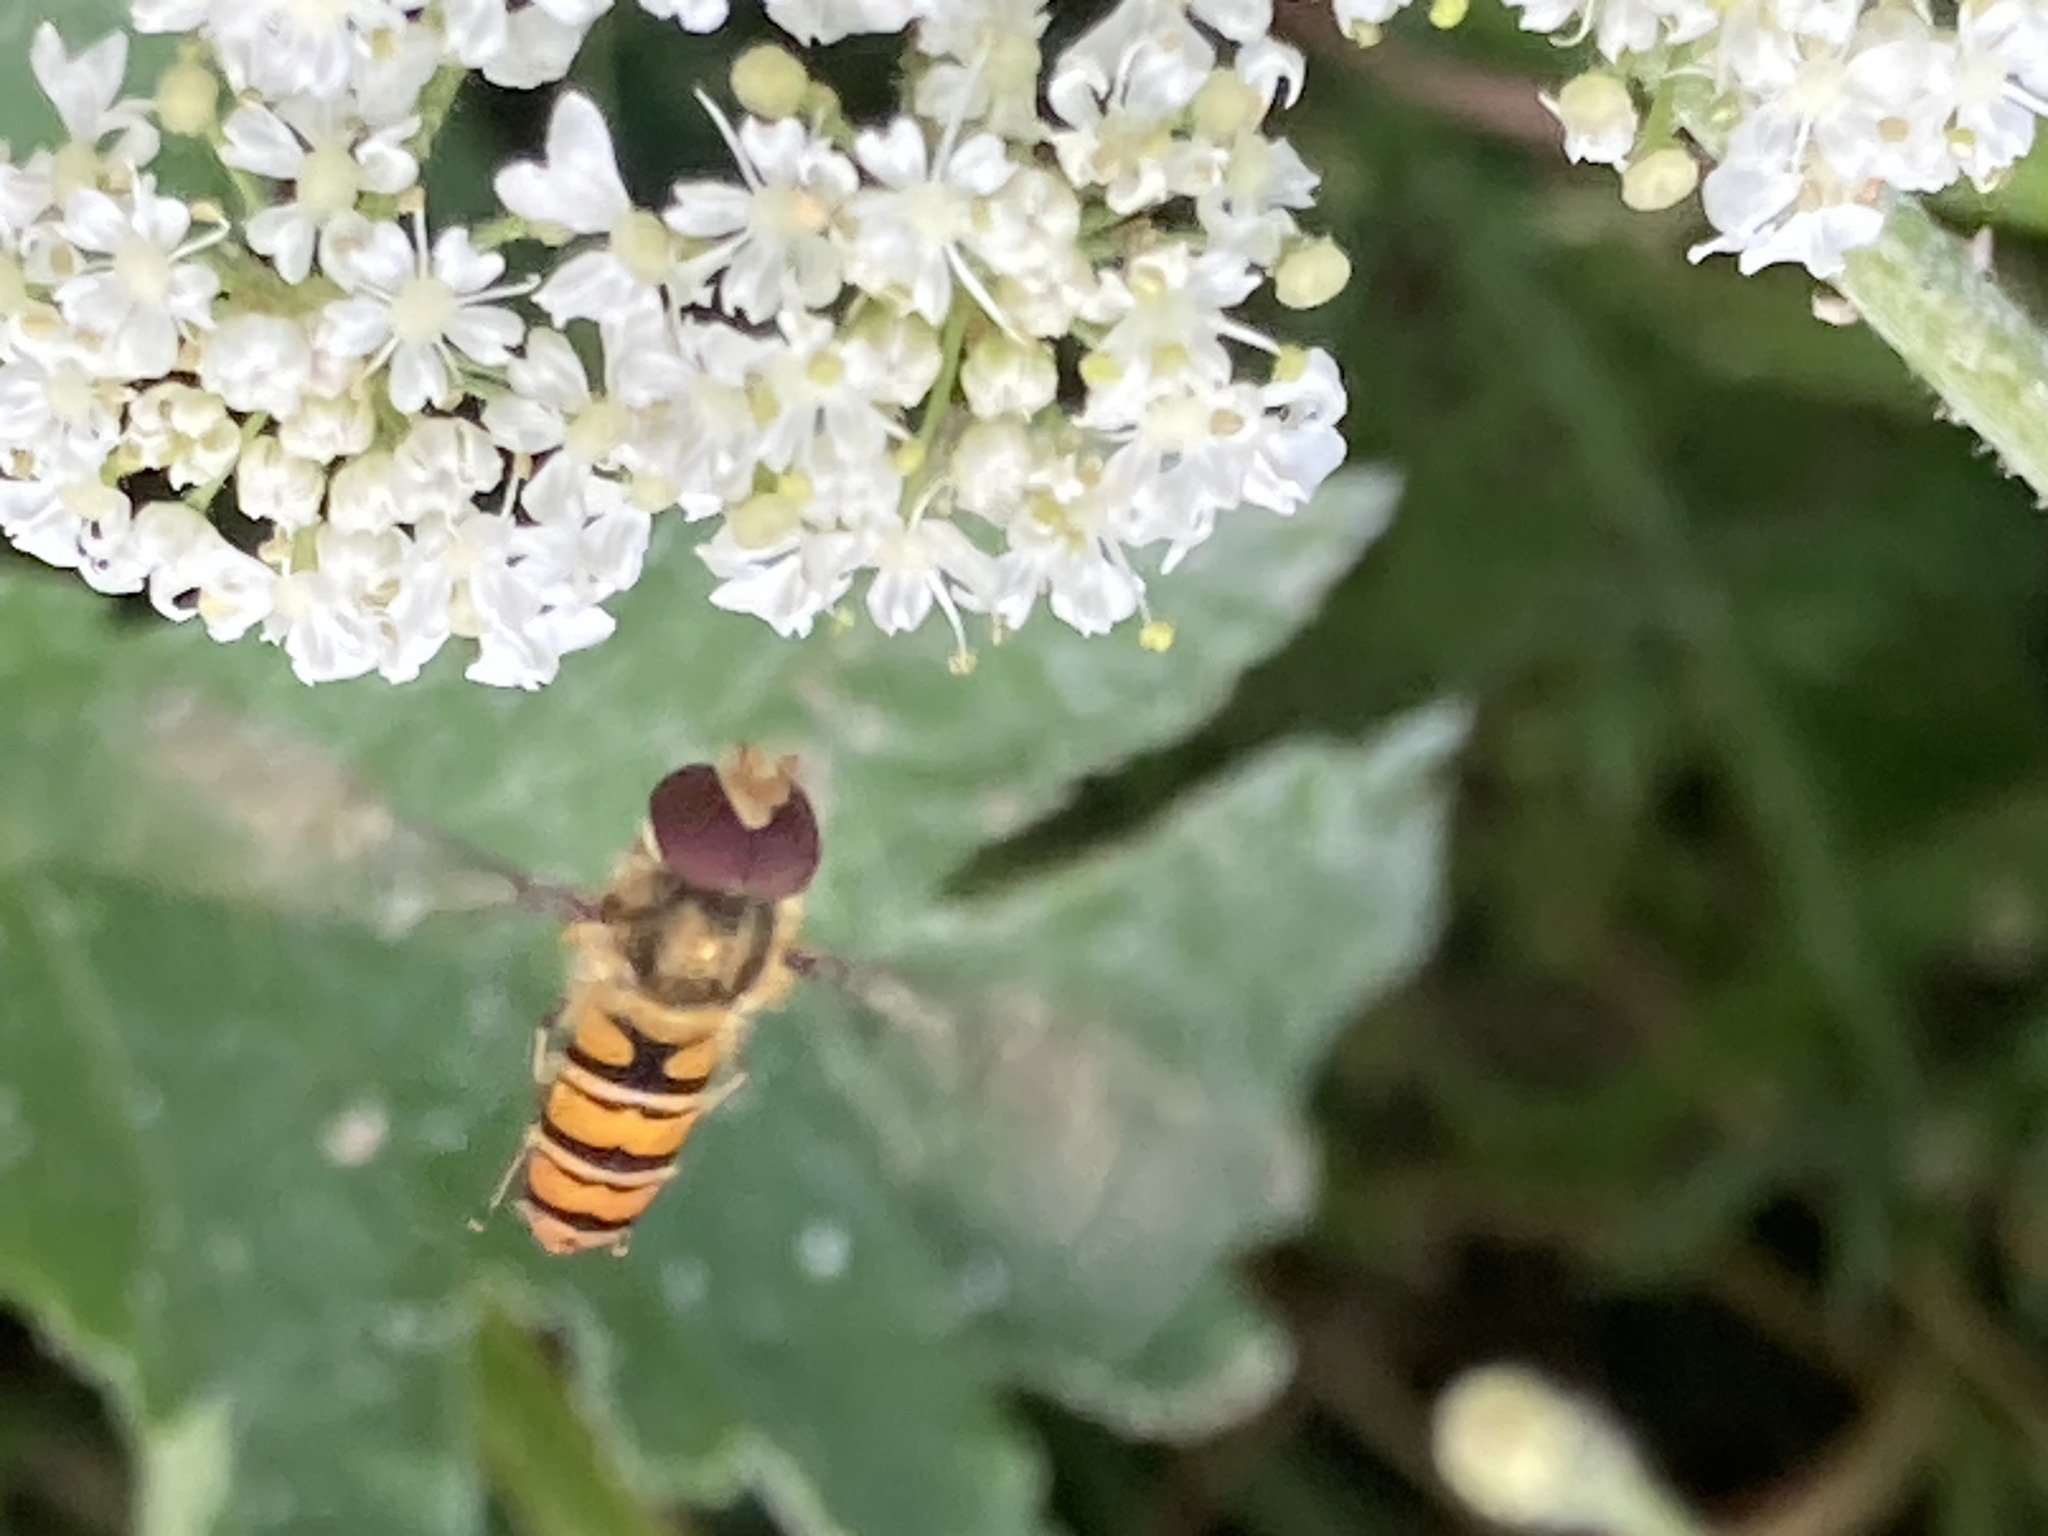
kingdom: Animalia
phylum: Arthropoda
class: Insecta
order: Diptera
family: Syrphidae
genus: Episyrphus
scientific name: Episyrphus balteatus
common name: Marmalade hoverfly
